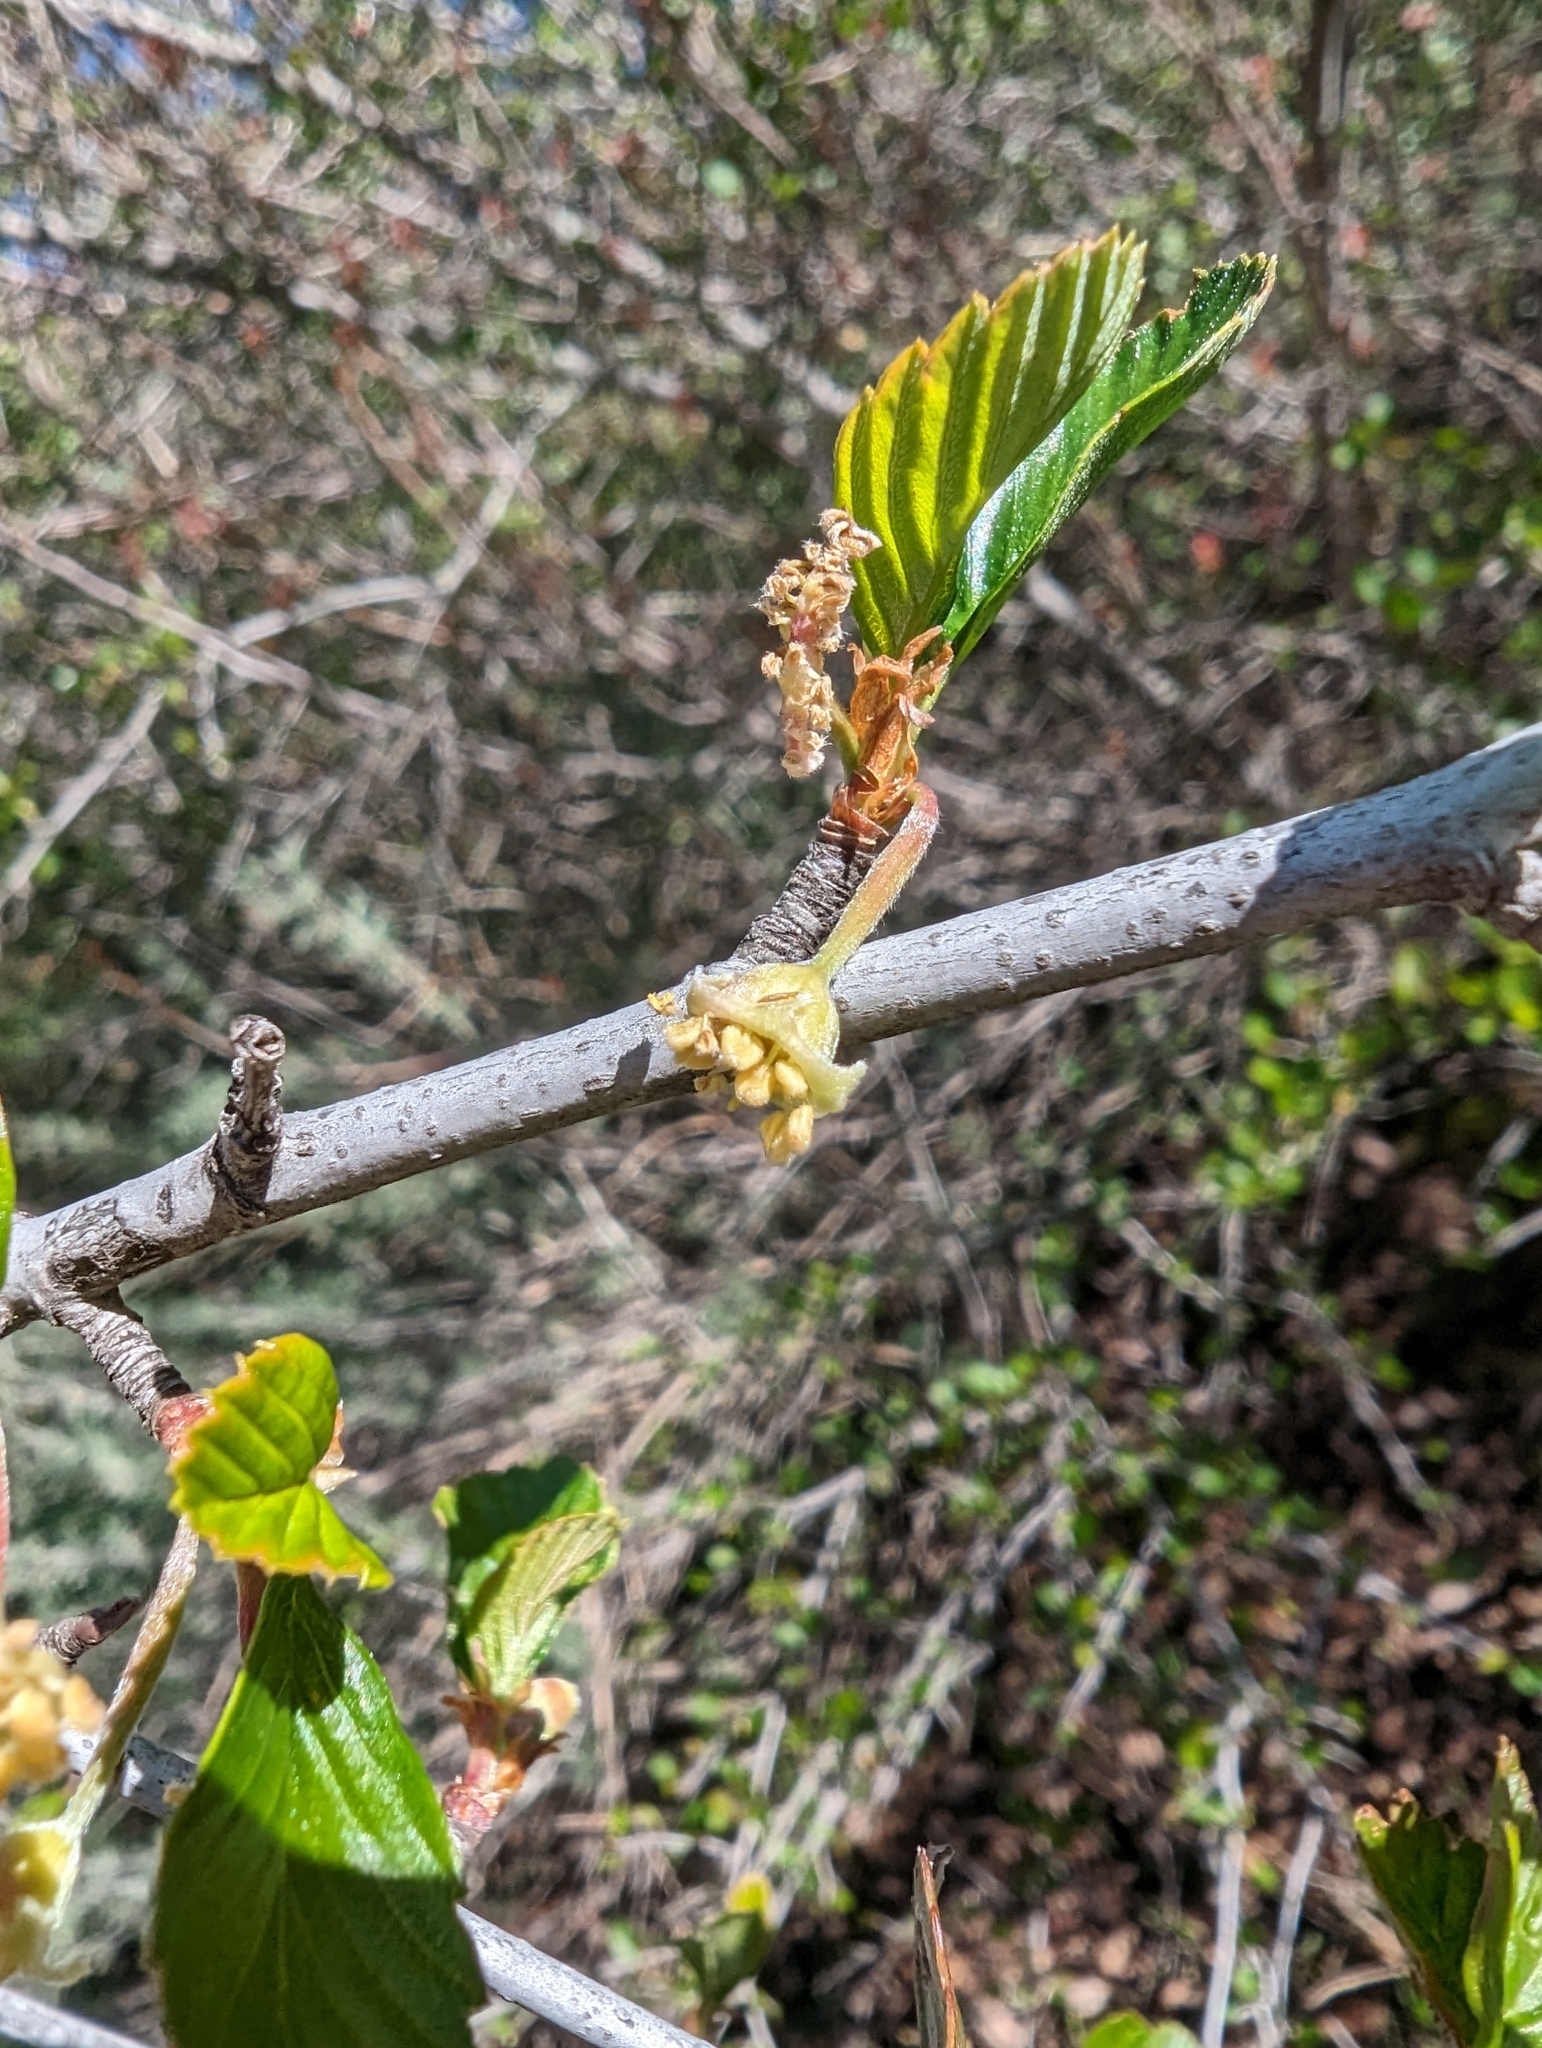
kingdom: Plantae
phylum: Tracheophyta
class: Magnoliopsida
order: Rosales
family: Rosaceae
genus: Cercocarpus
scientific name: Cercocarpus betuloides
